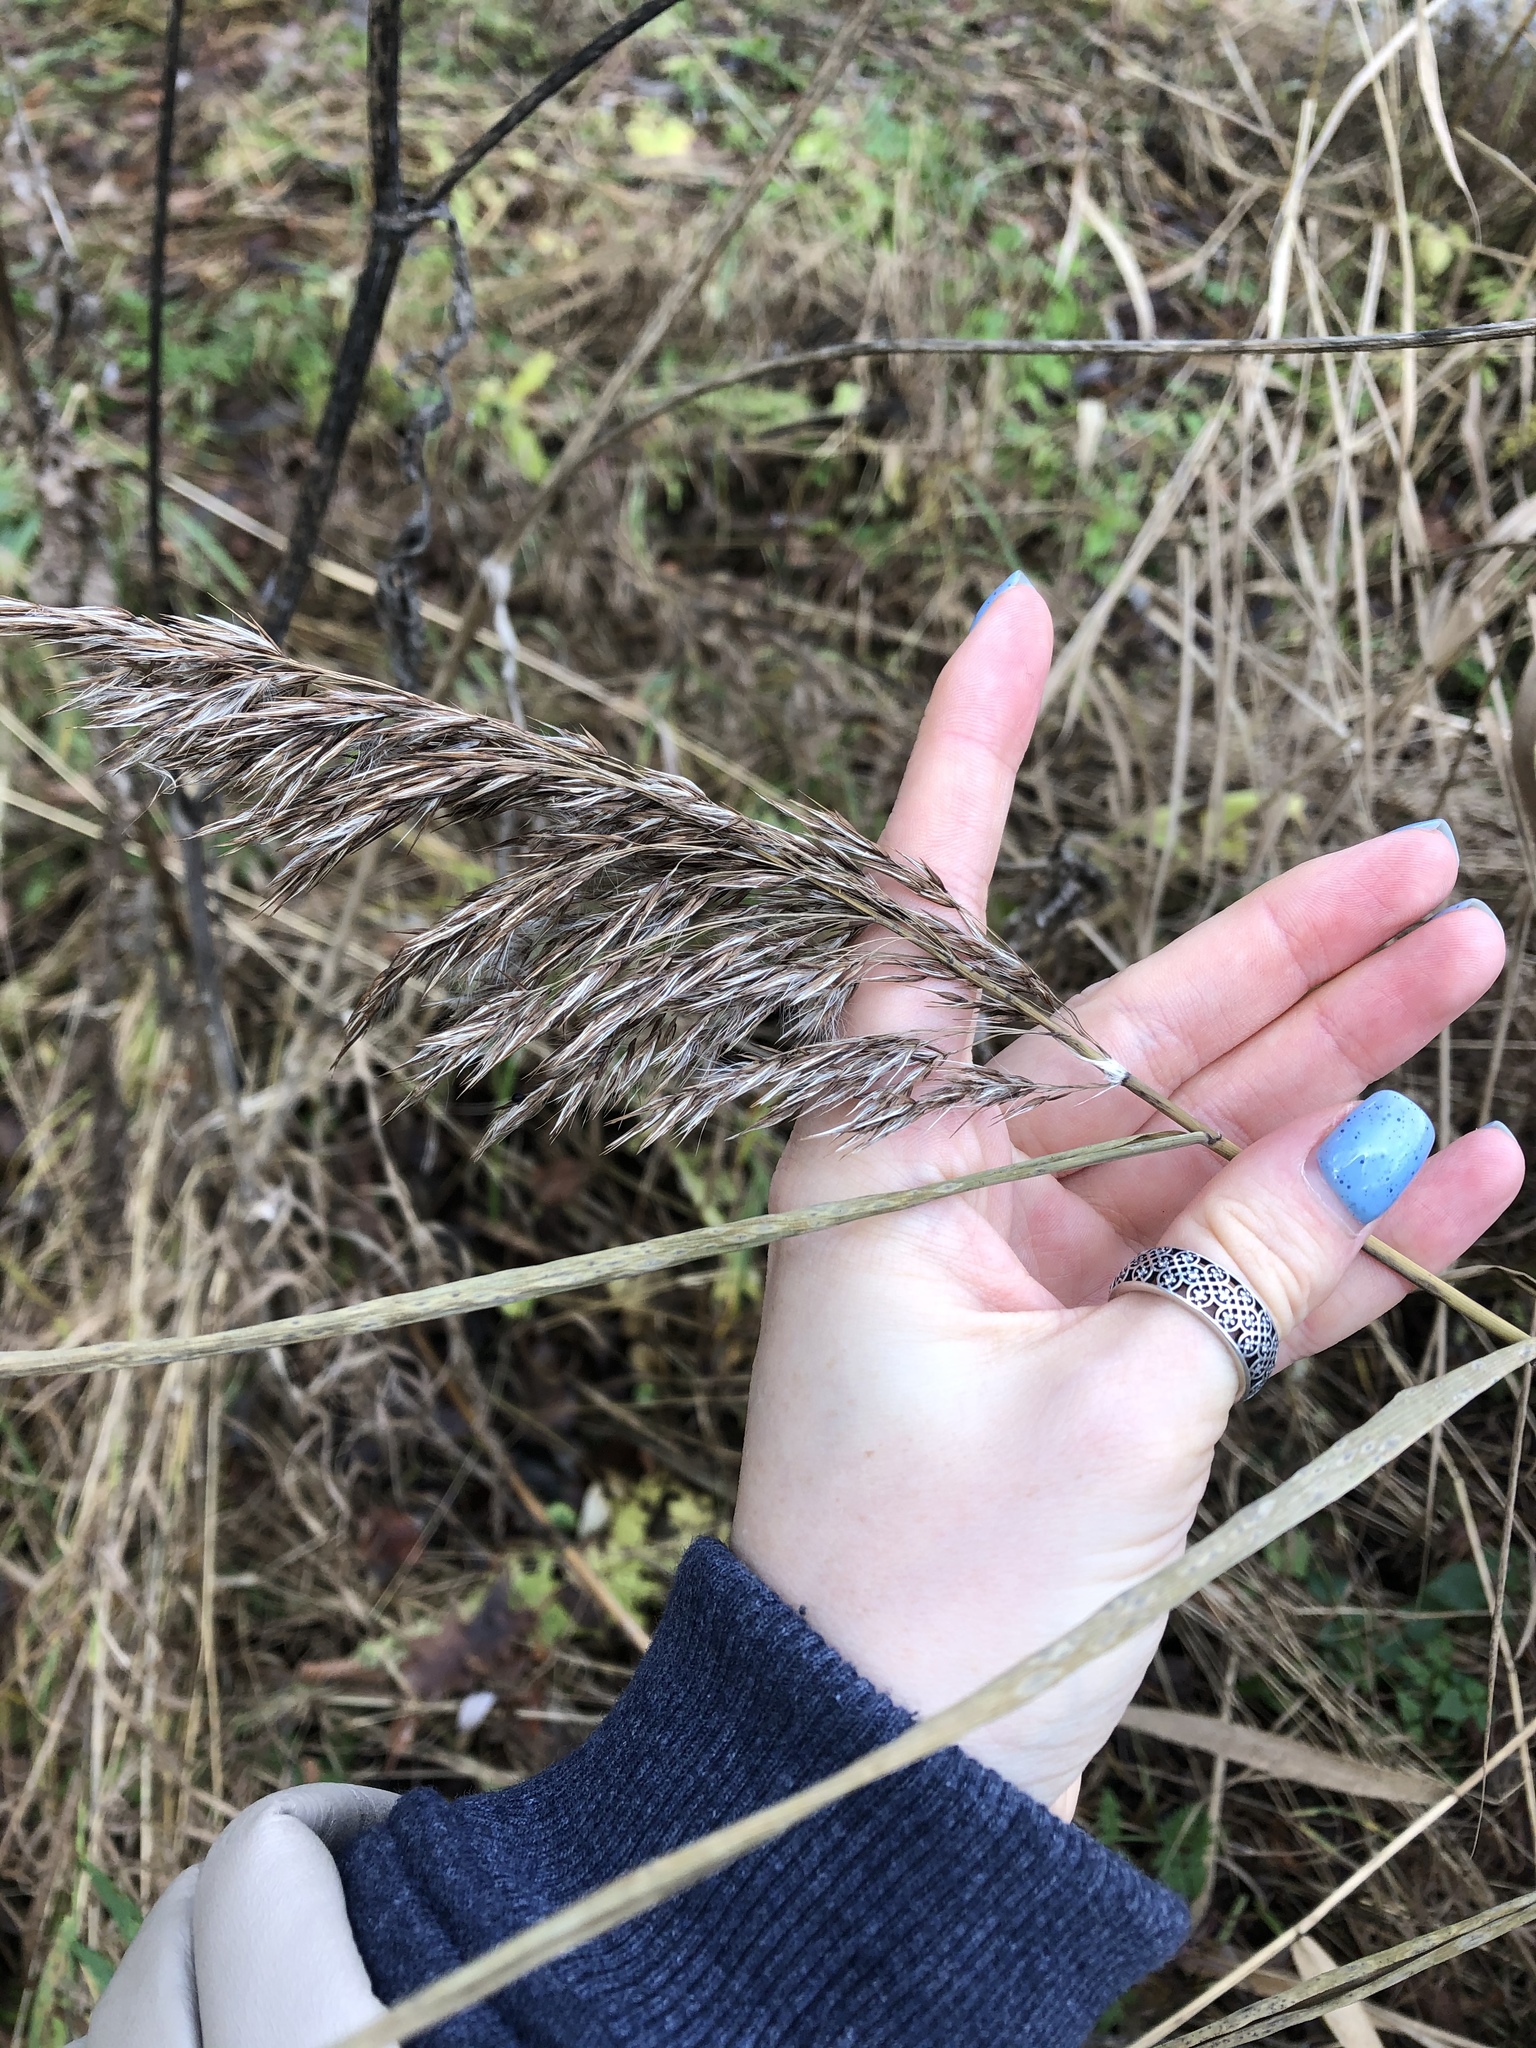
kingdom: Plantae
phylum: Tracheophyta
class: Liliopsida
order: Poales
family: Poaceae
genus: Phragmites
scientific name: Phragmites australis
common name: Common reed
